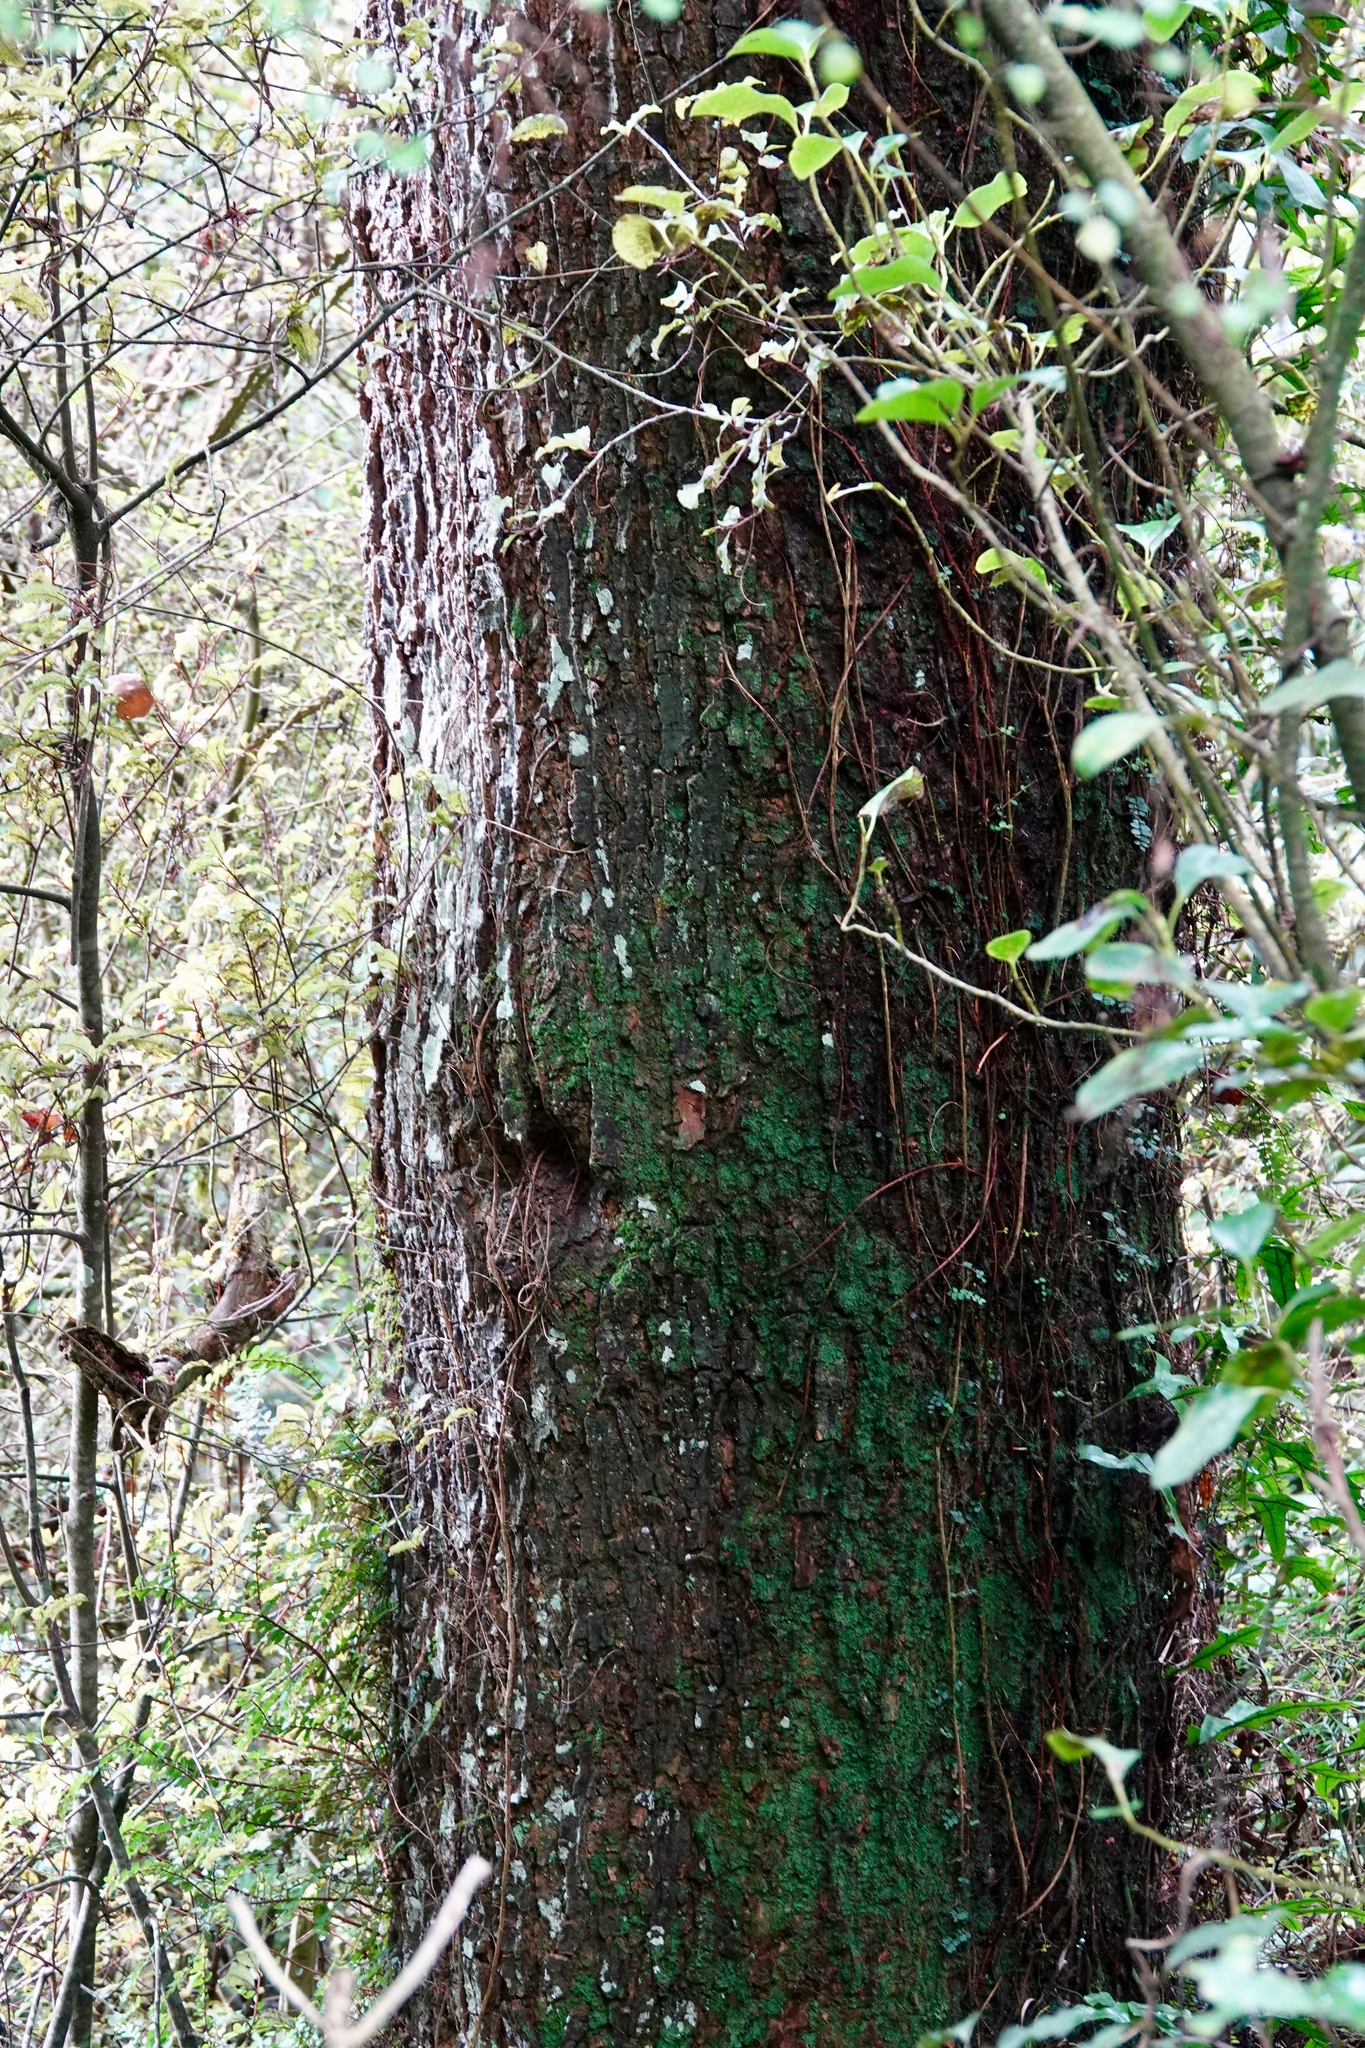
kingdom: Plantae
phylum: Tracheophyta
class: Magnoliopsida
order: Fabales
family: Fabaceae
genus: Sophora
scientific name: Sophora microphylla
